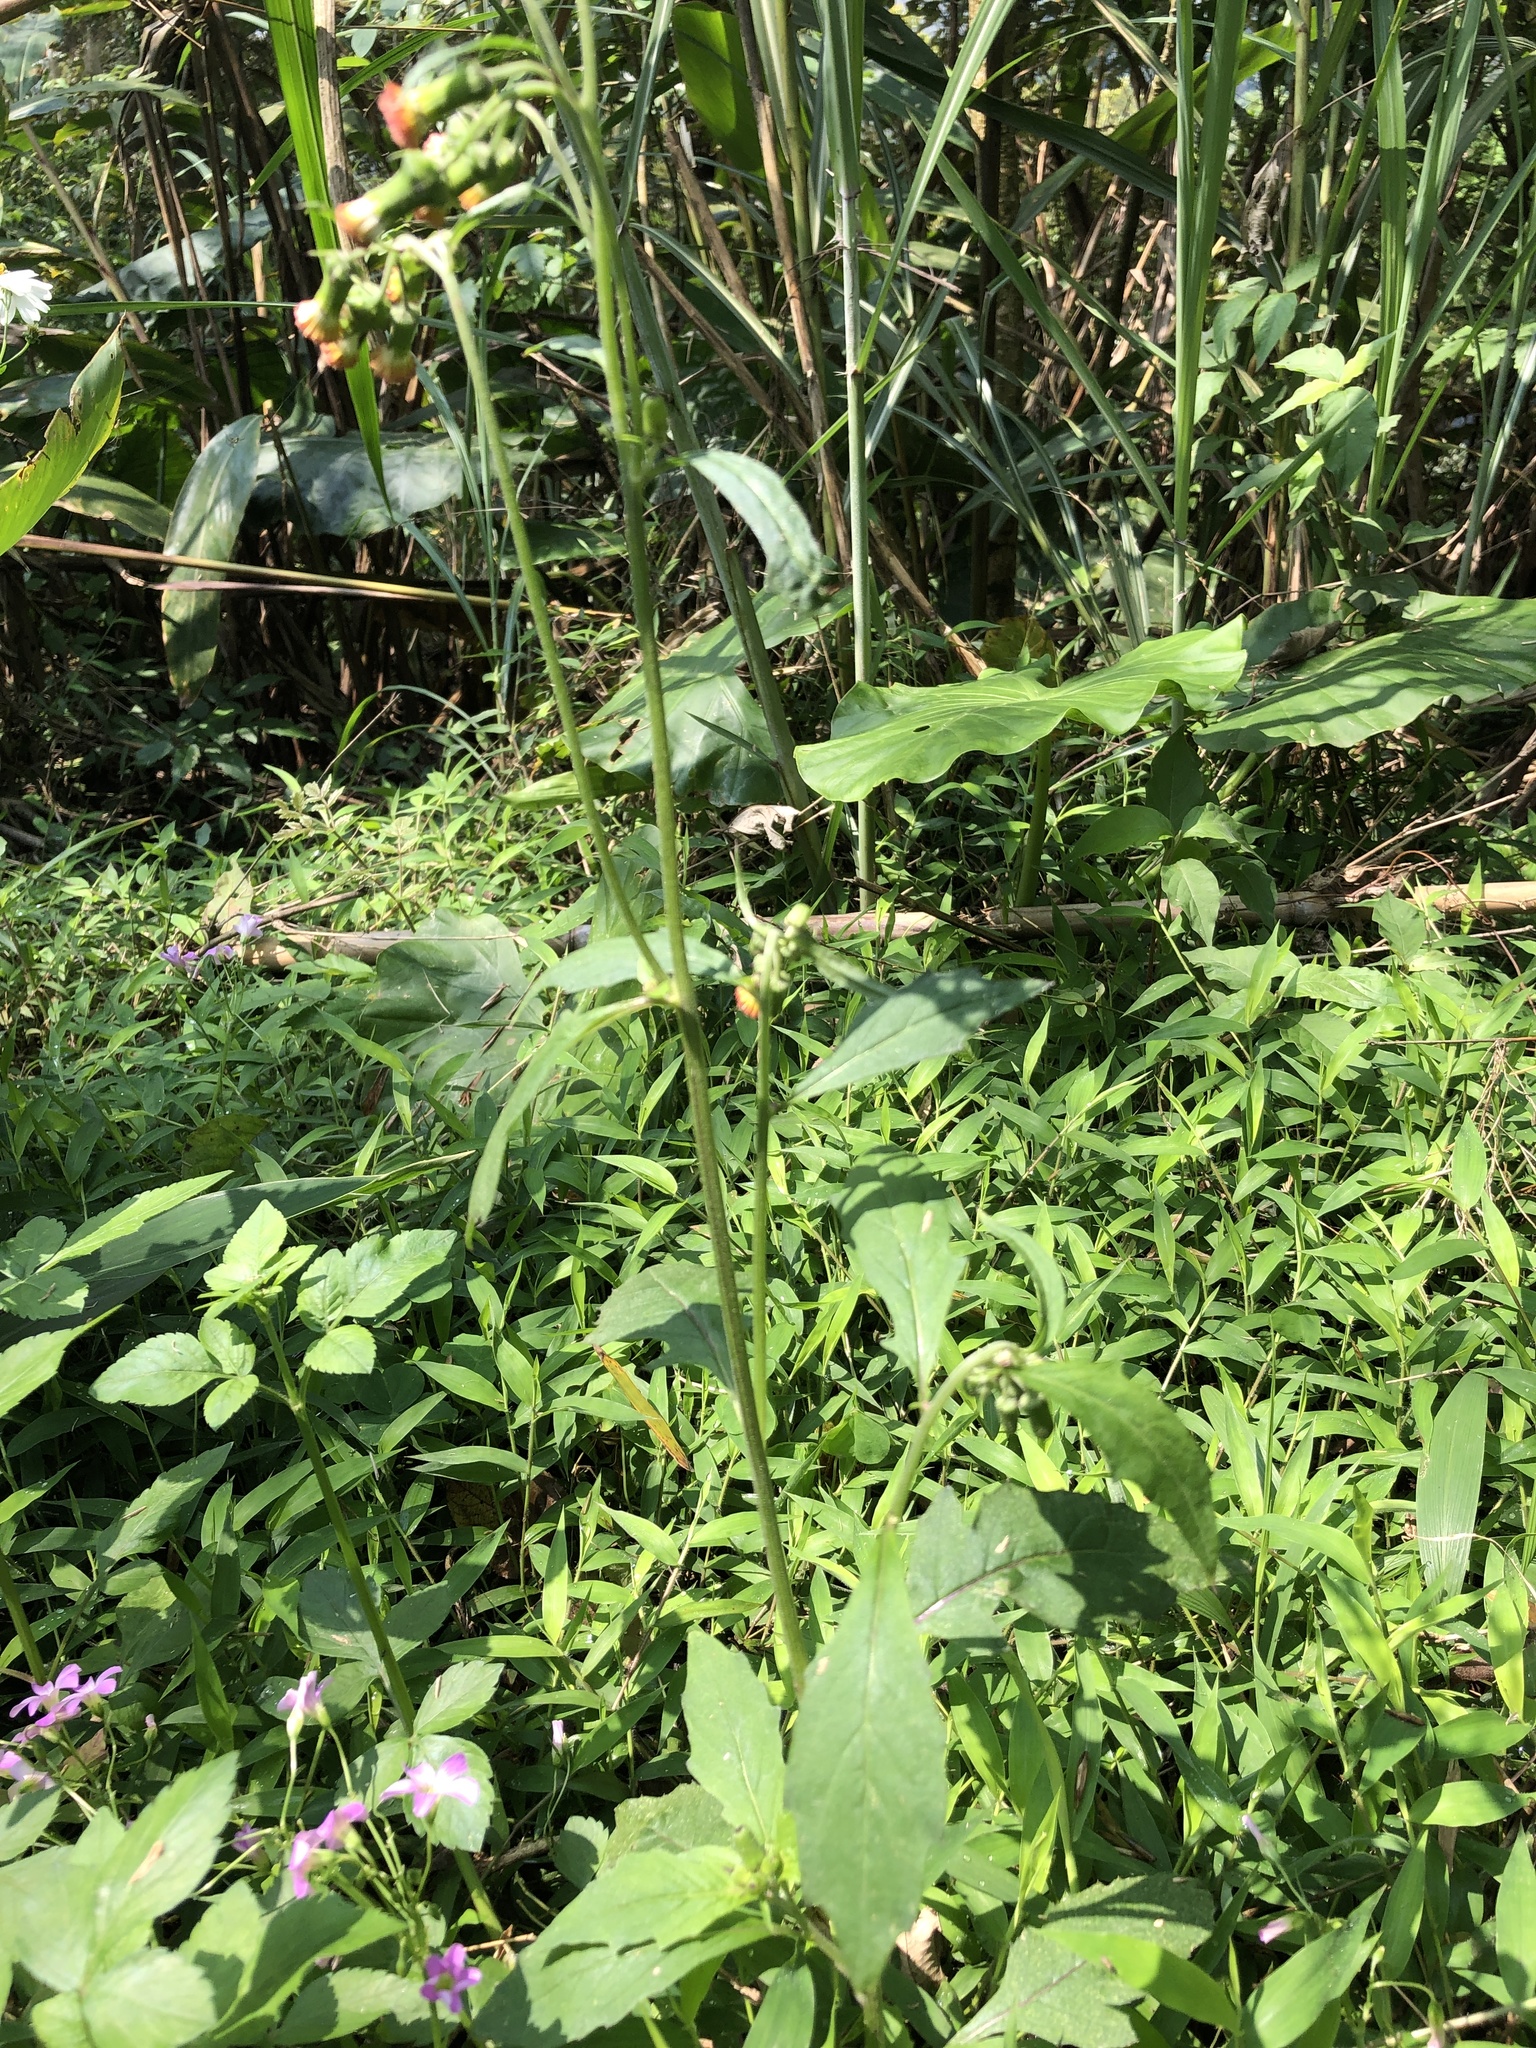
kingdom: Plantae
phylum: Tracheophyta
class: Magnoliopsida
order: Asterales
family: Asteraceae
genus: Crassocephalum
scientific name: Crassocephalum crepidioides
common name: Redflower ragleaf
